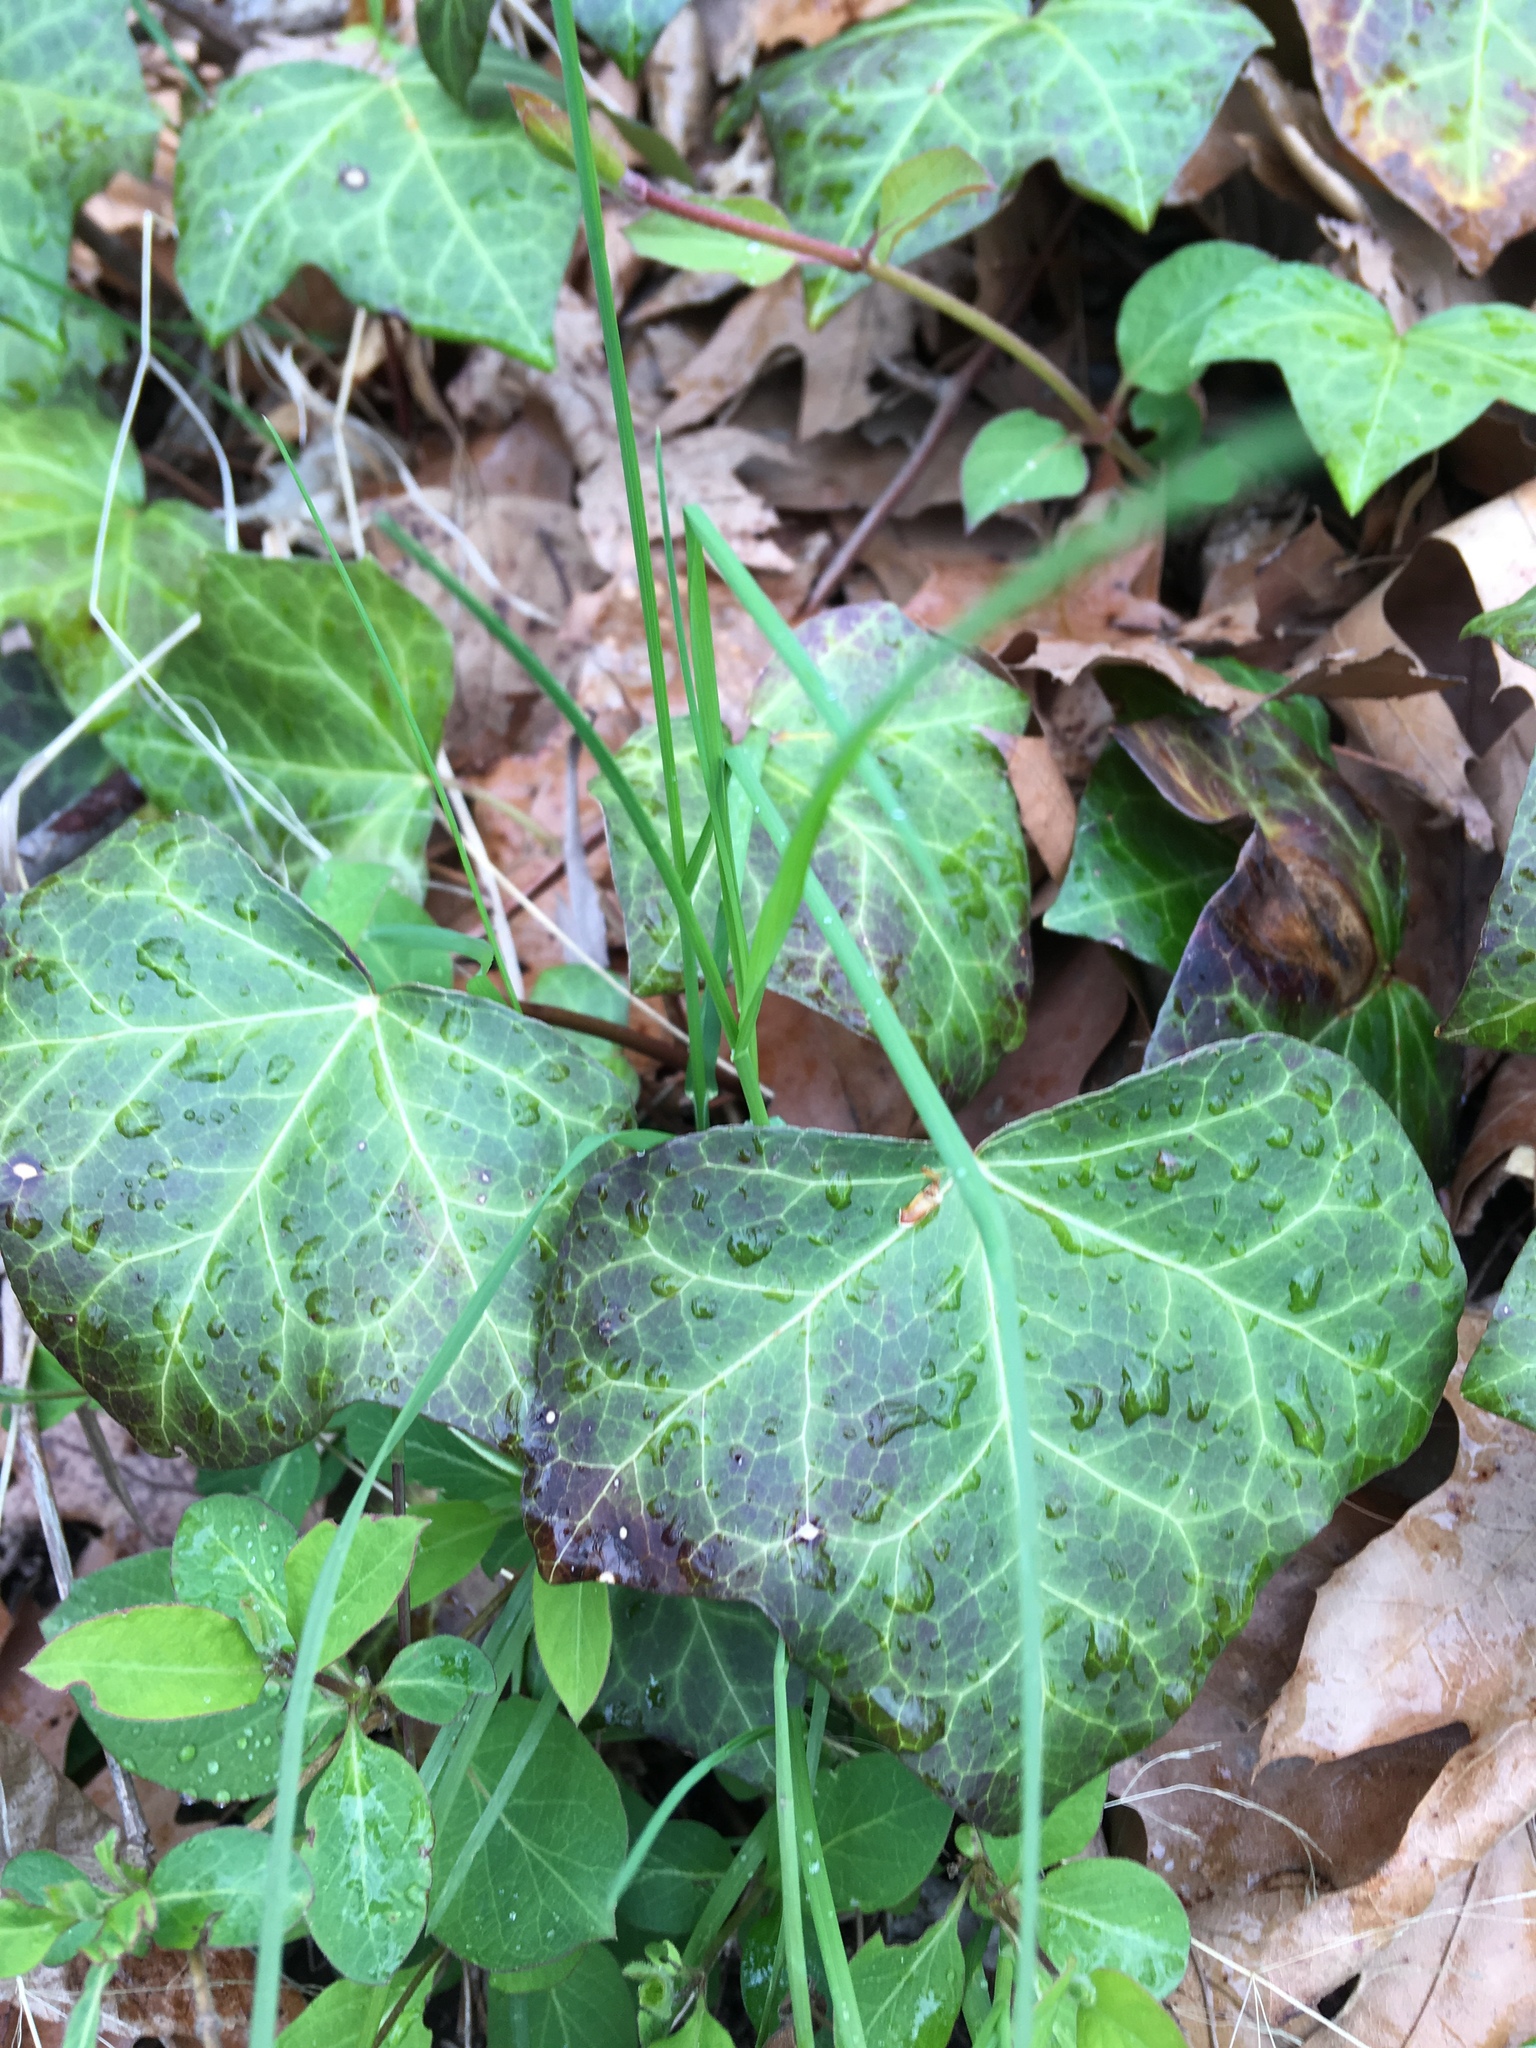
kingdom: Plantae
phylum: Tracheophyta
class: Magnoliopsida
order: Apiales
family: Araliaceae
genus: Hedera
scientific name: Hedera helix
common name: Ivy
